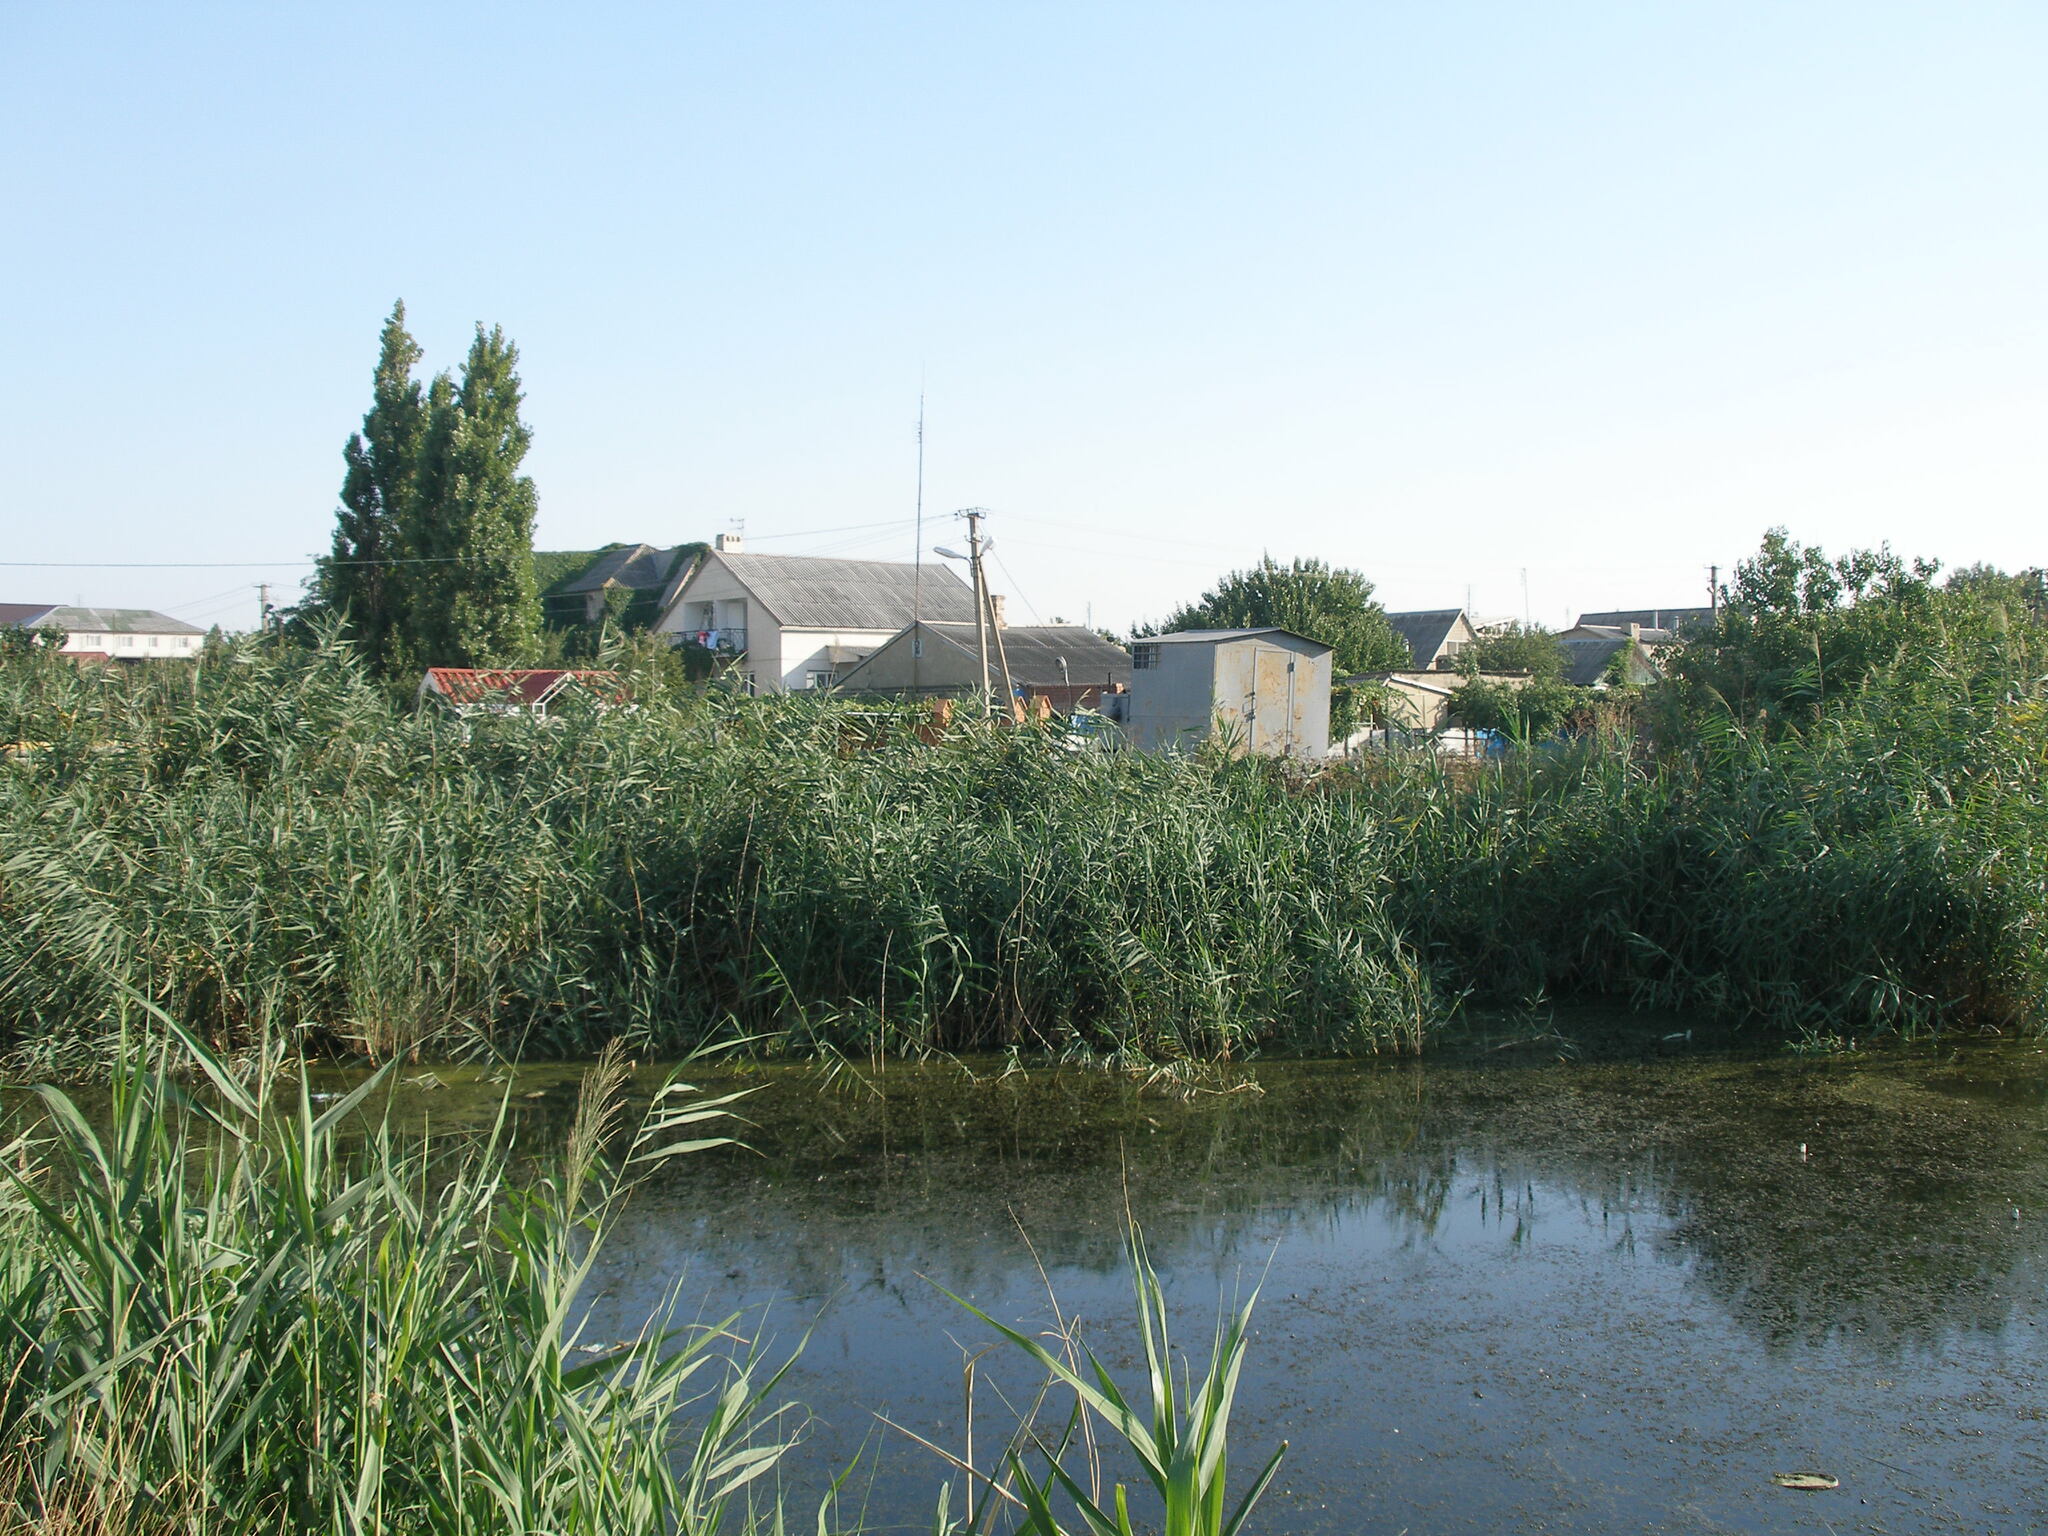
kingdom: Plantae
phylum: Tracheophyta
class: Liliopsida
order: Poales
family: Poaceae
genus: Phragmites
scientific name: Phragmites australis
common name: Common reed
